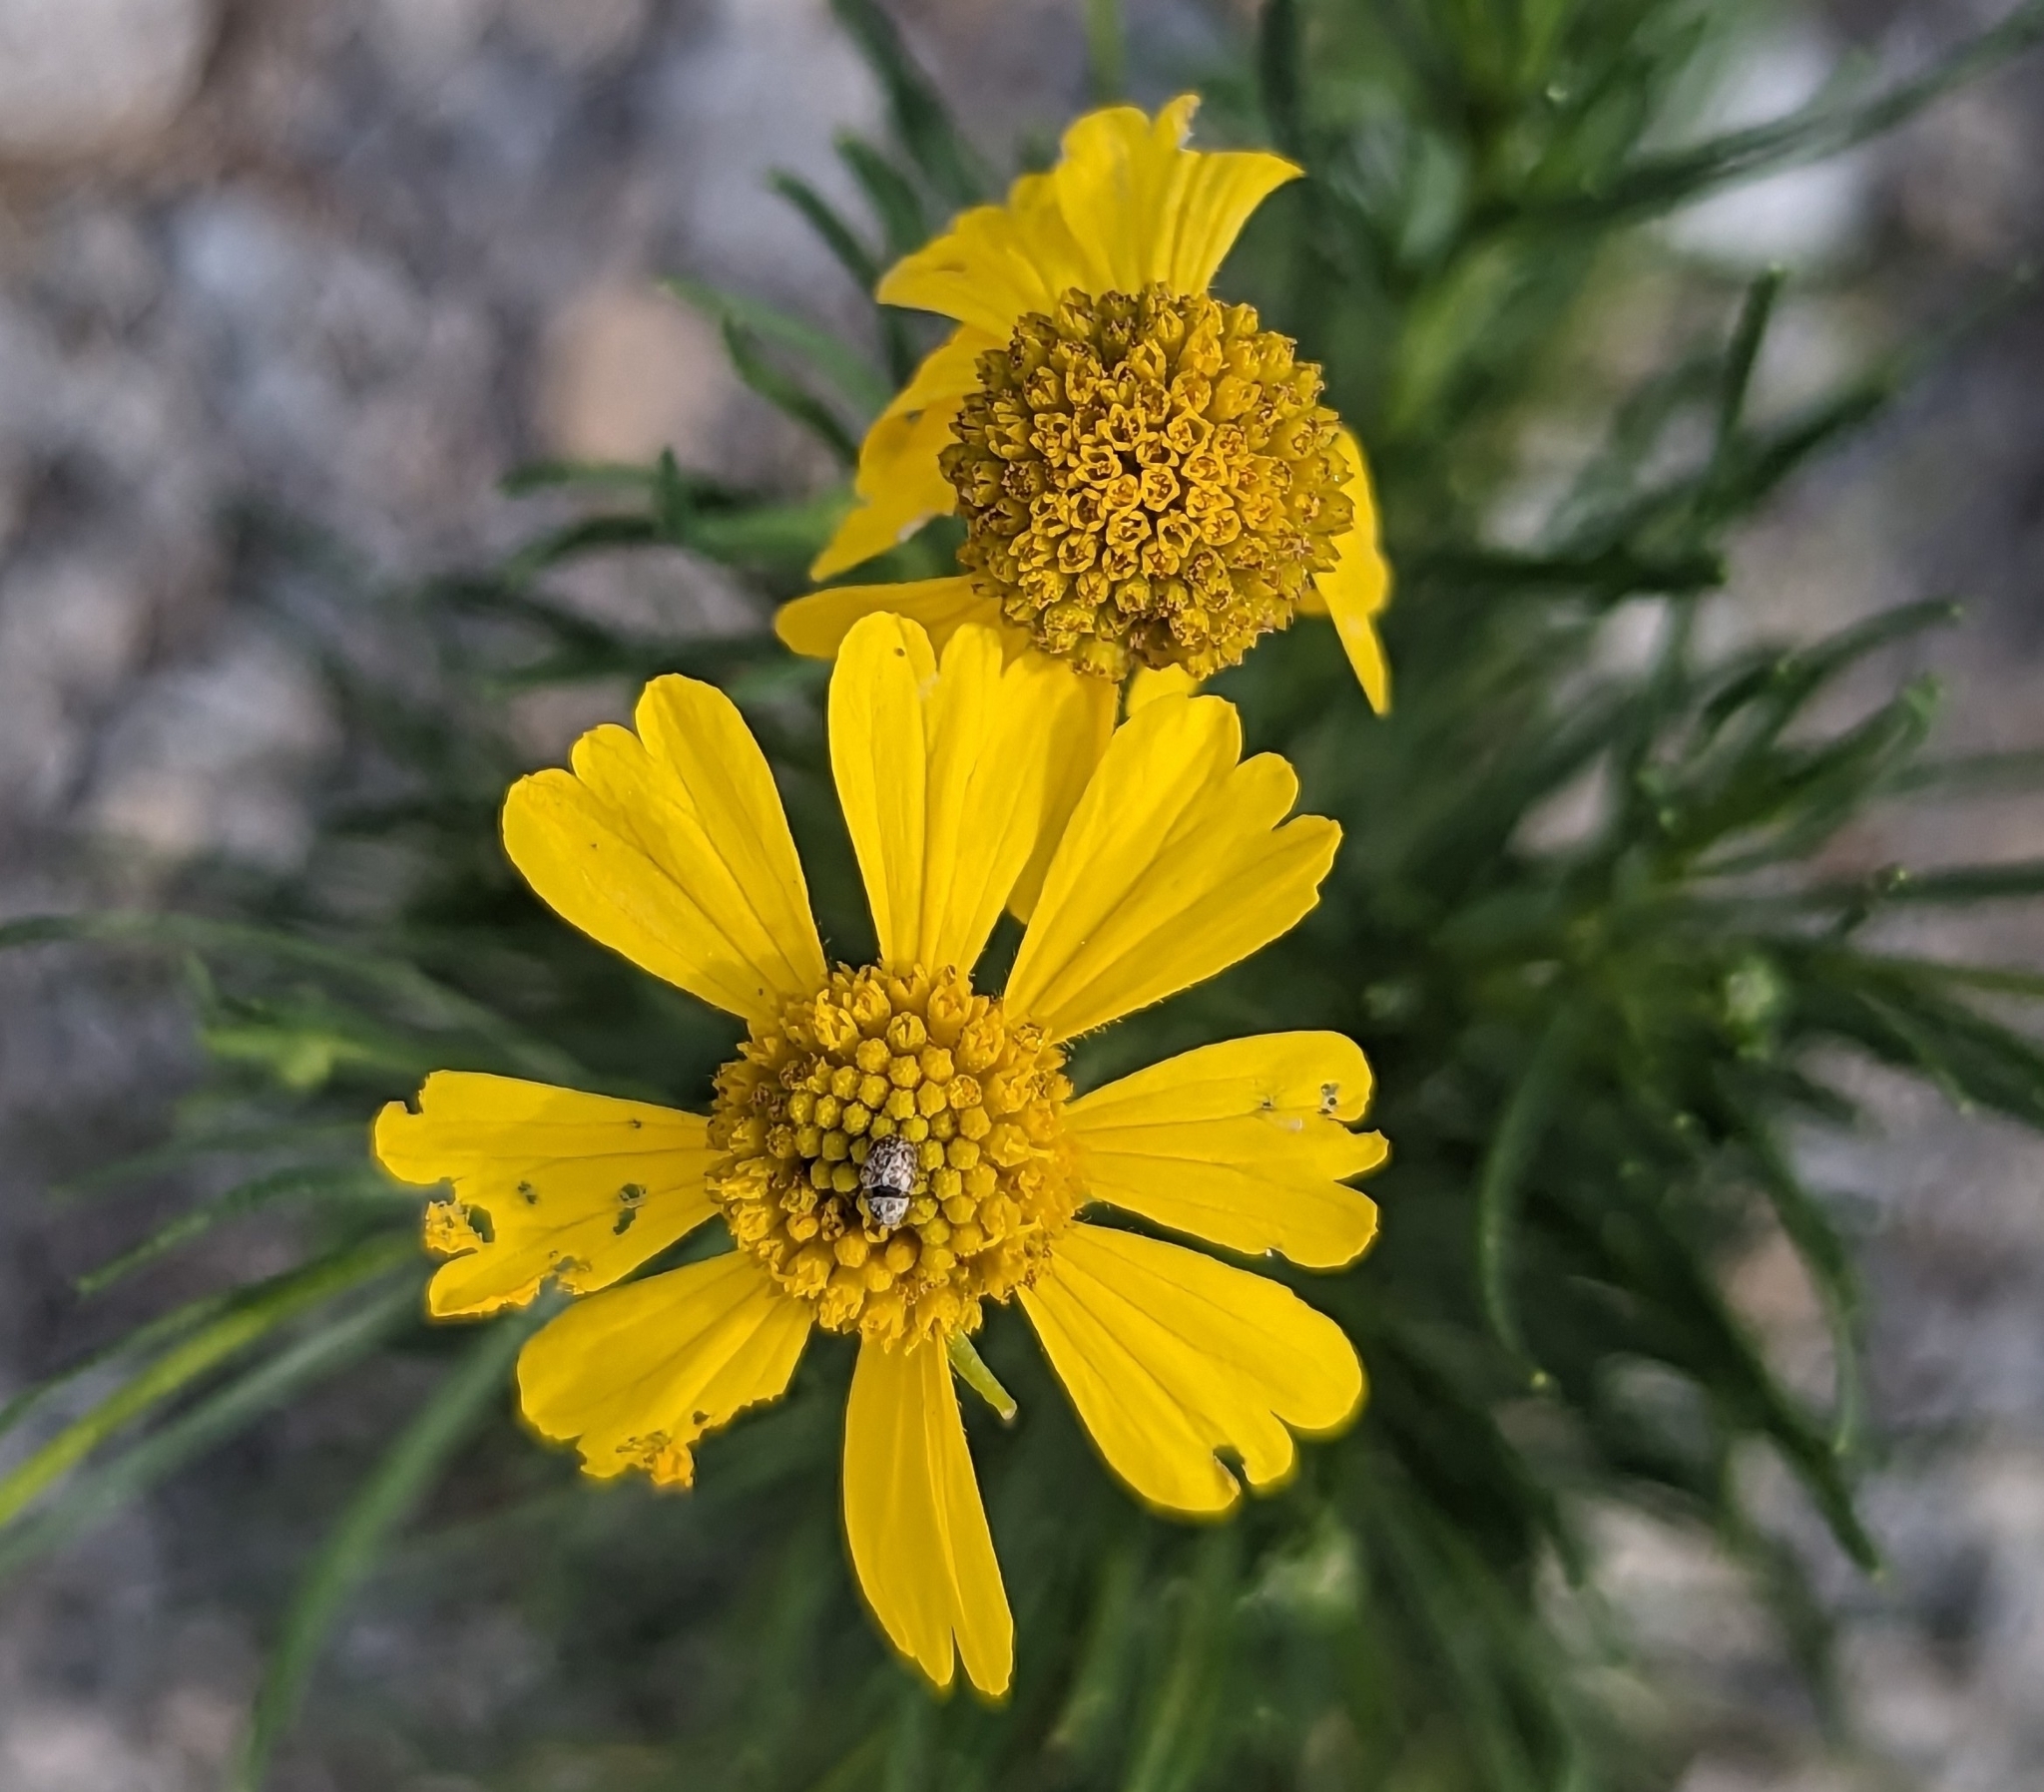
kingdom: Plantae
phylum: Tracheophyta
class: Magnoliopsida
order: Asterales
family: Asteraceae
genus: Helenium
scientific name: Helenium amarum
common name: Bitter sneezeweed
